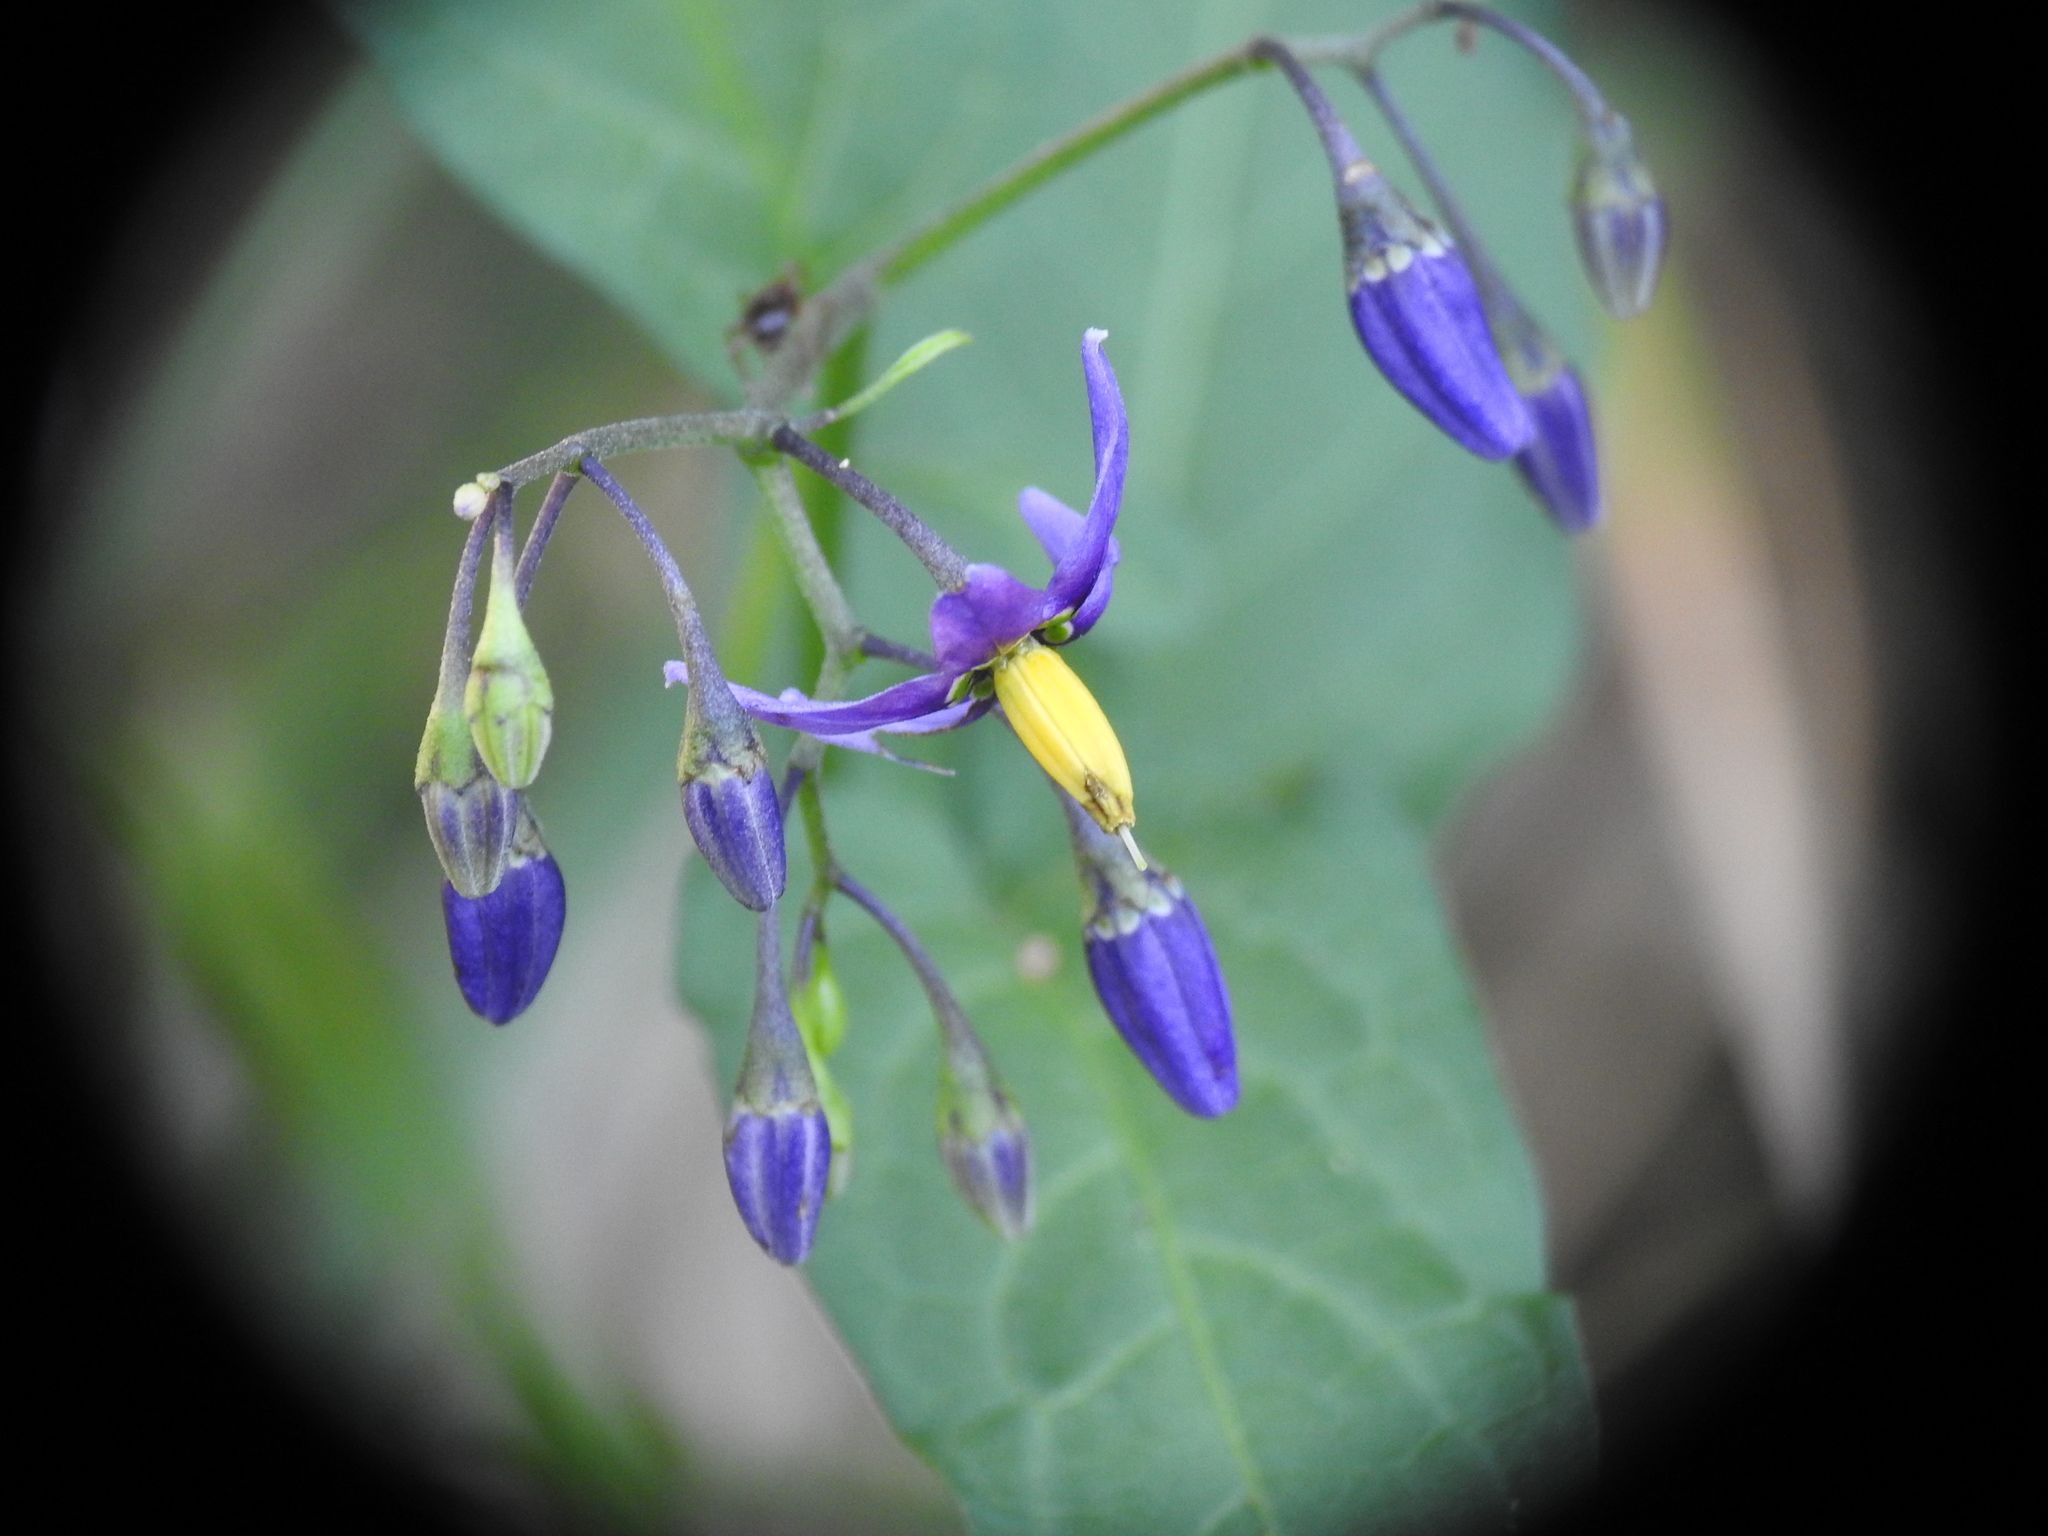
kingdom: Plantae
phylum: Tracheophyta
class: Magnoliopsida
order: Solanales
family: Solanaceae
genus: Solanum
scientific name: Solanum dulcamara
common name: Climbing nightshade
